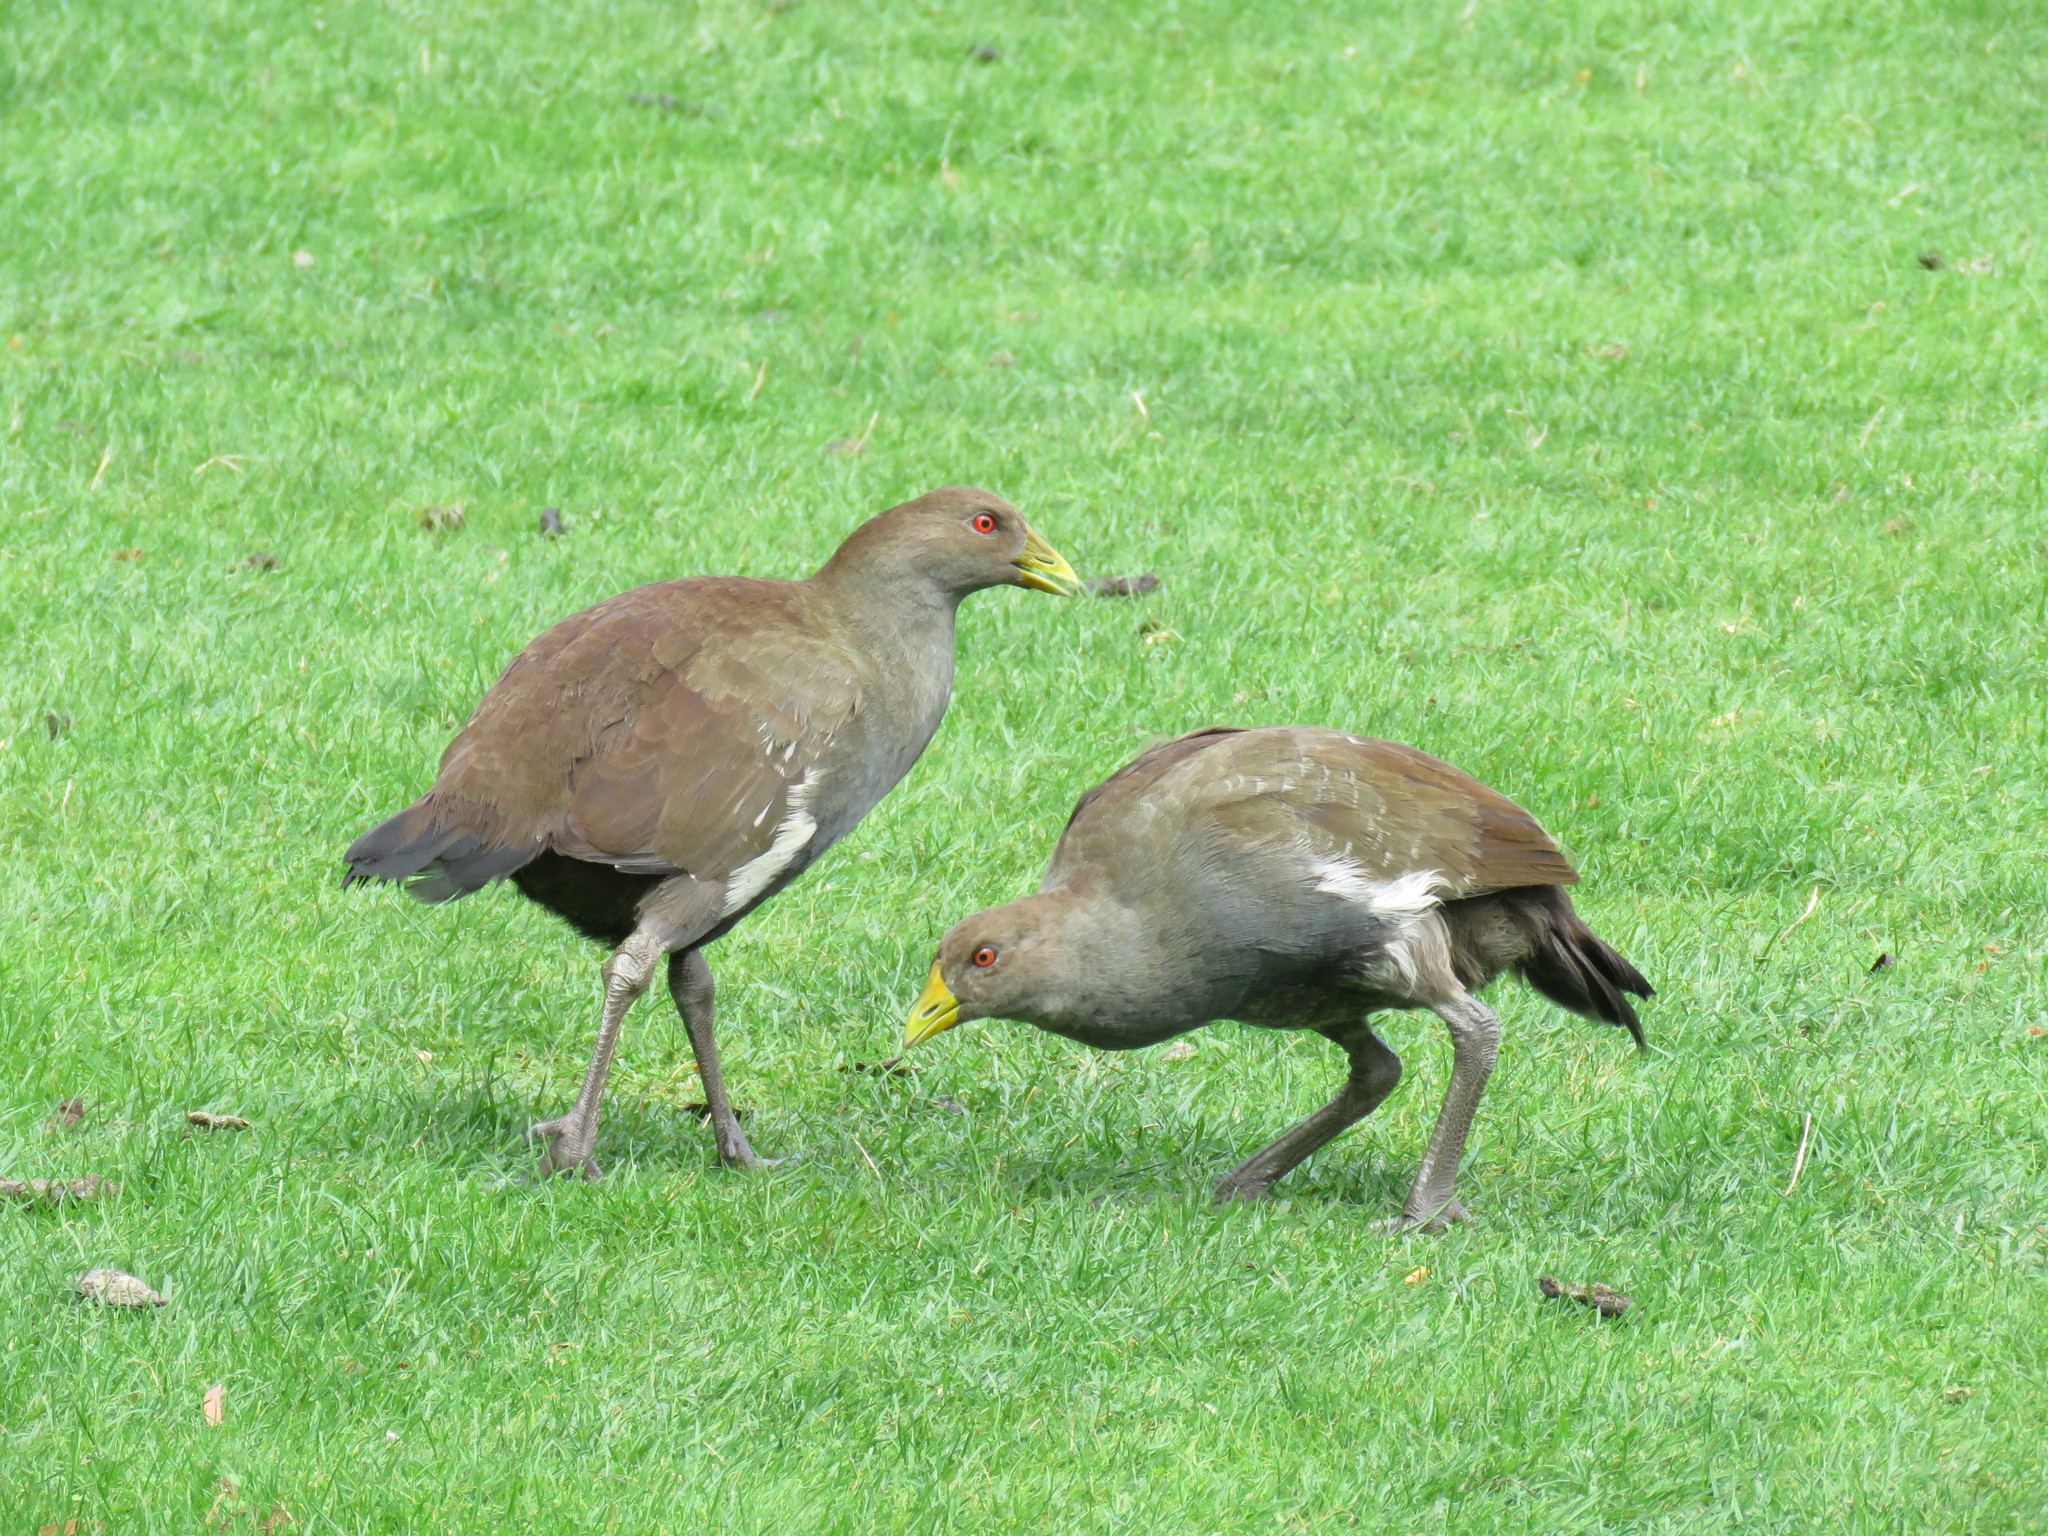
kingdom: Animalia
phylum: Chordata
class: Aves
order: Gruiformes
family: Rallidae
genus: Gallinula
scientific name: Gallinula mortierii
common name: Tasmanian nativehen
